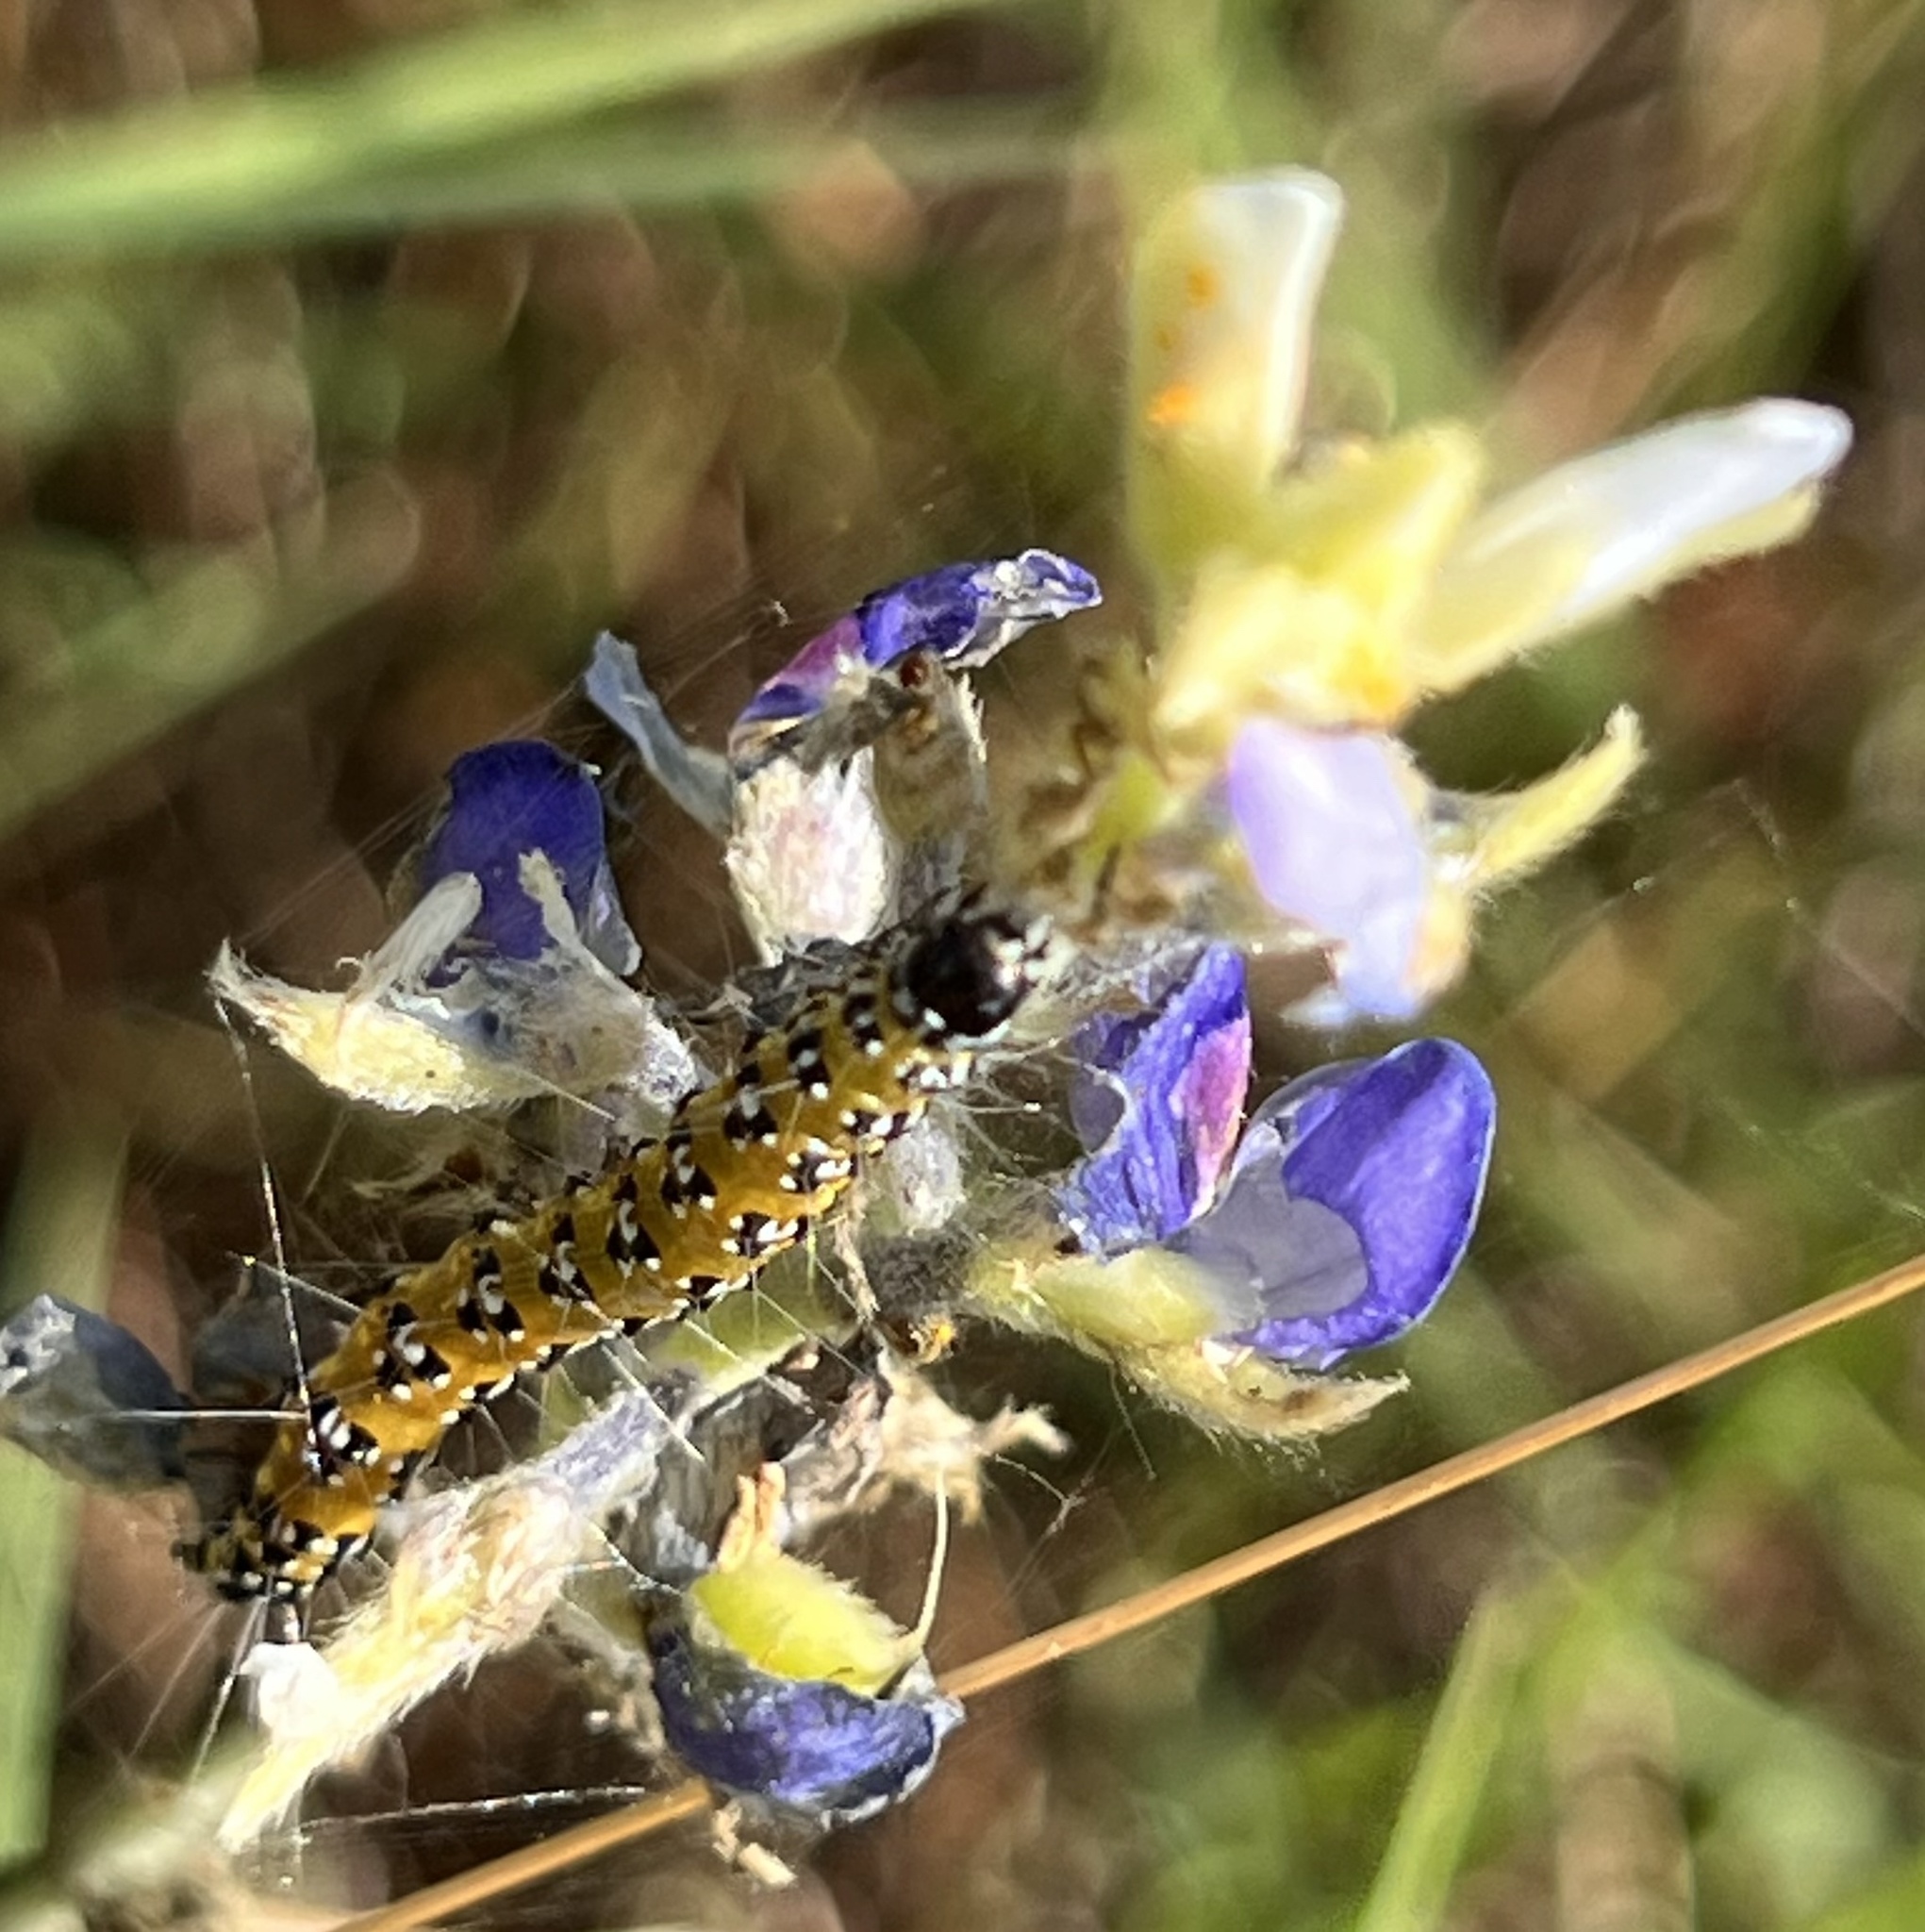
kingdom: Animalia
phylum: Arthropoda
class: Insecta
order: Lepidoptera
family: Crambidae
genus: Uresiphita
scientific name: Uresiphita reversalis
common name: Genista broom moth
